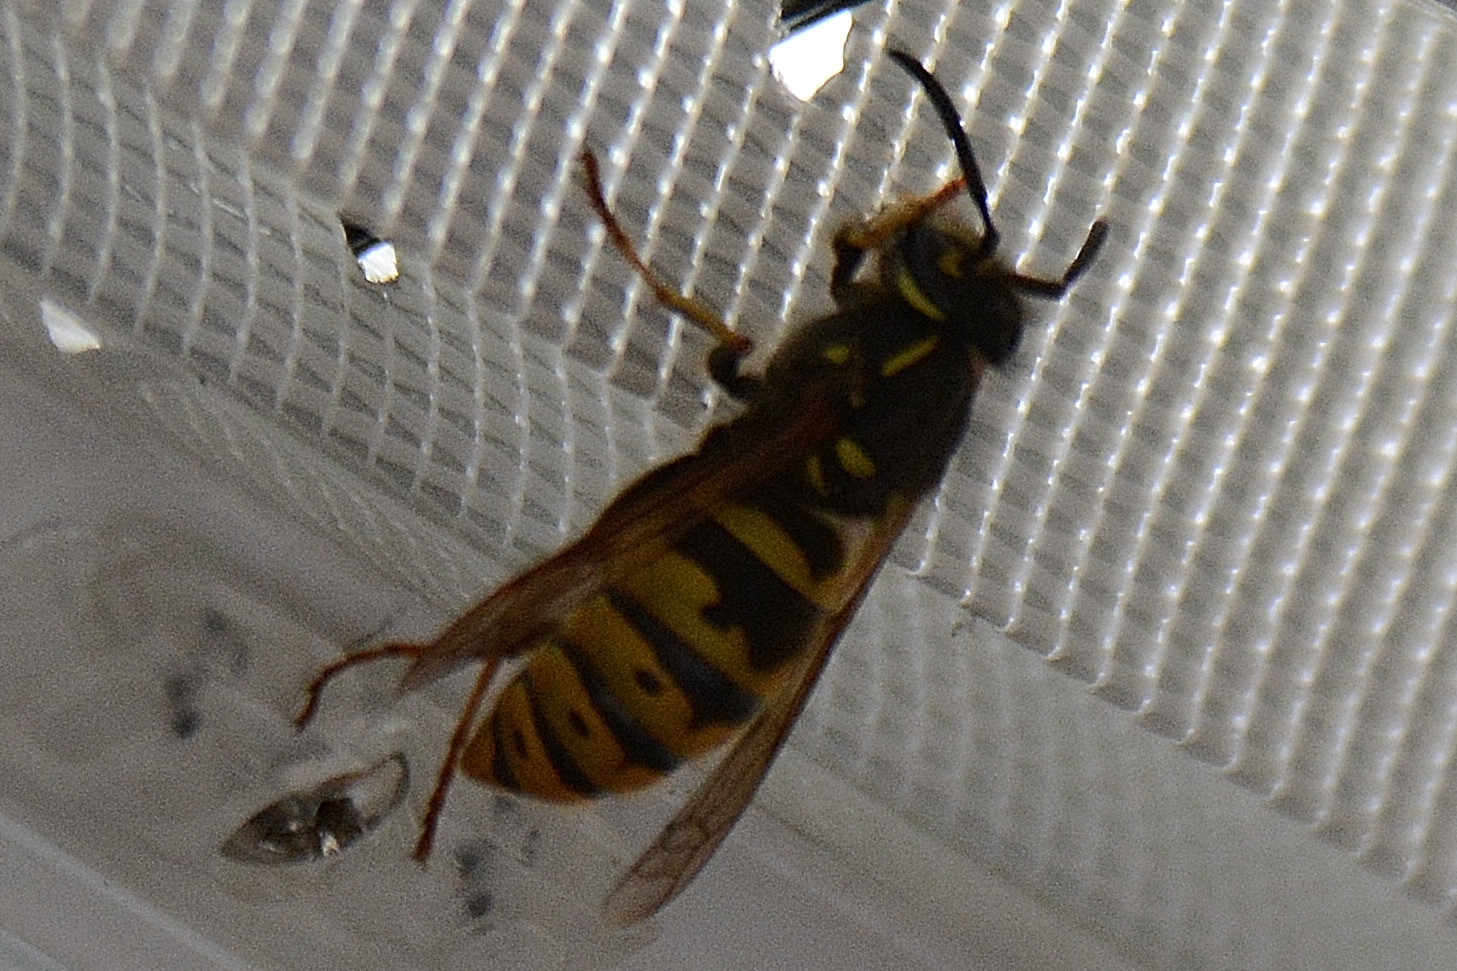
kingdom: Animalia
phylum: Arthropoda
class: Insecta
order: Hymenoptera
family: Vespidae
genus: Vespula
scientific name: Vespula vulgaris
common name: Common wasp
